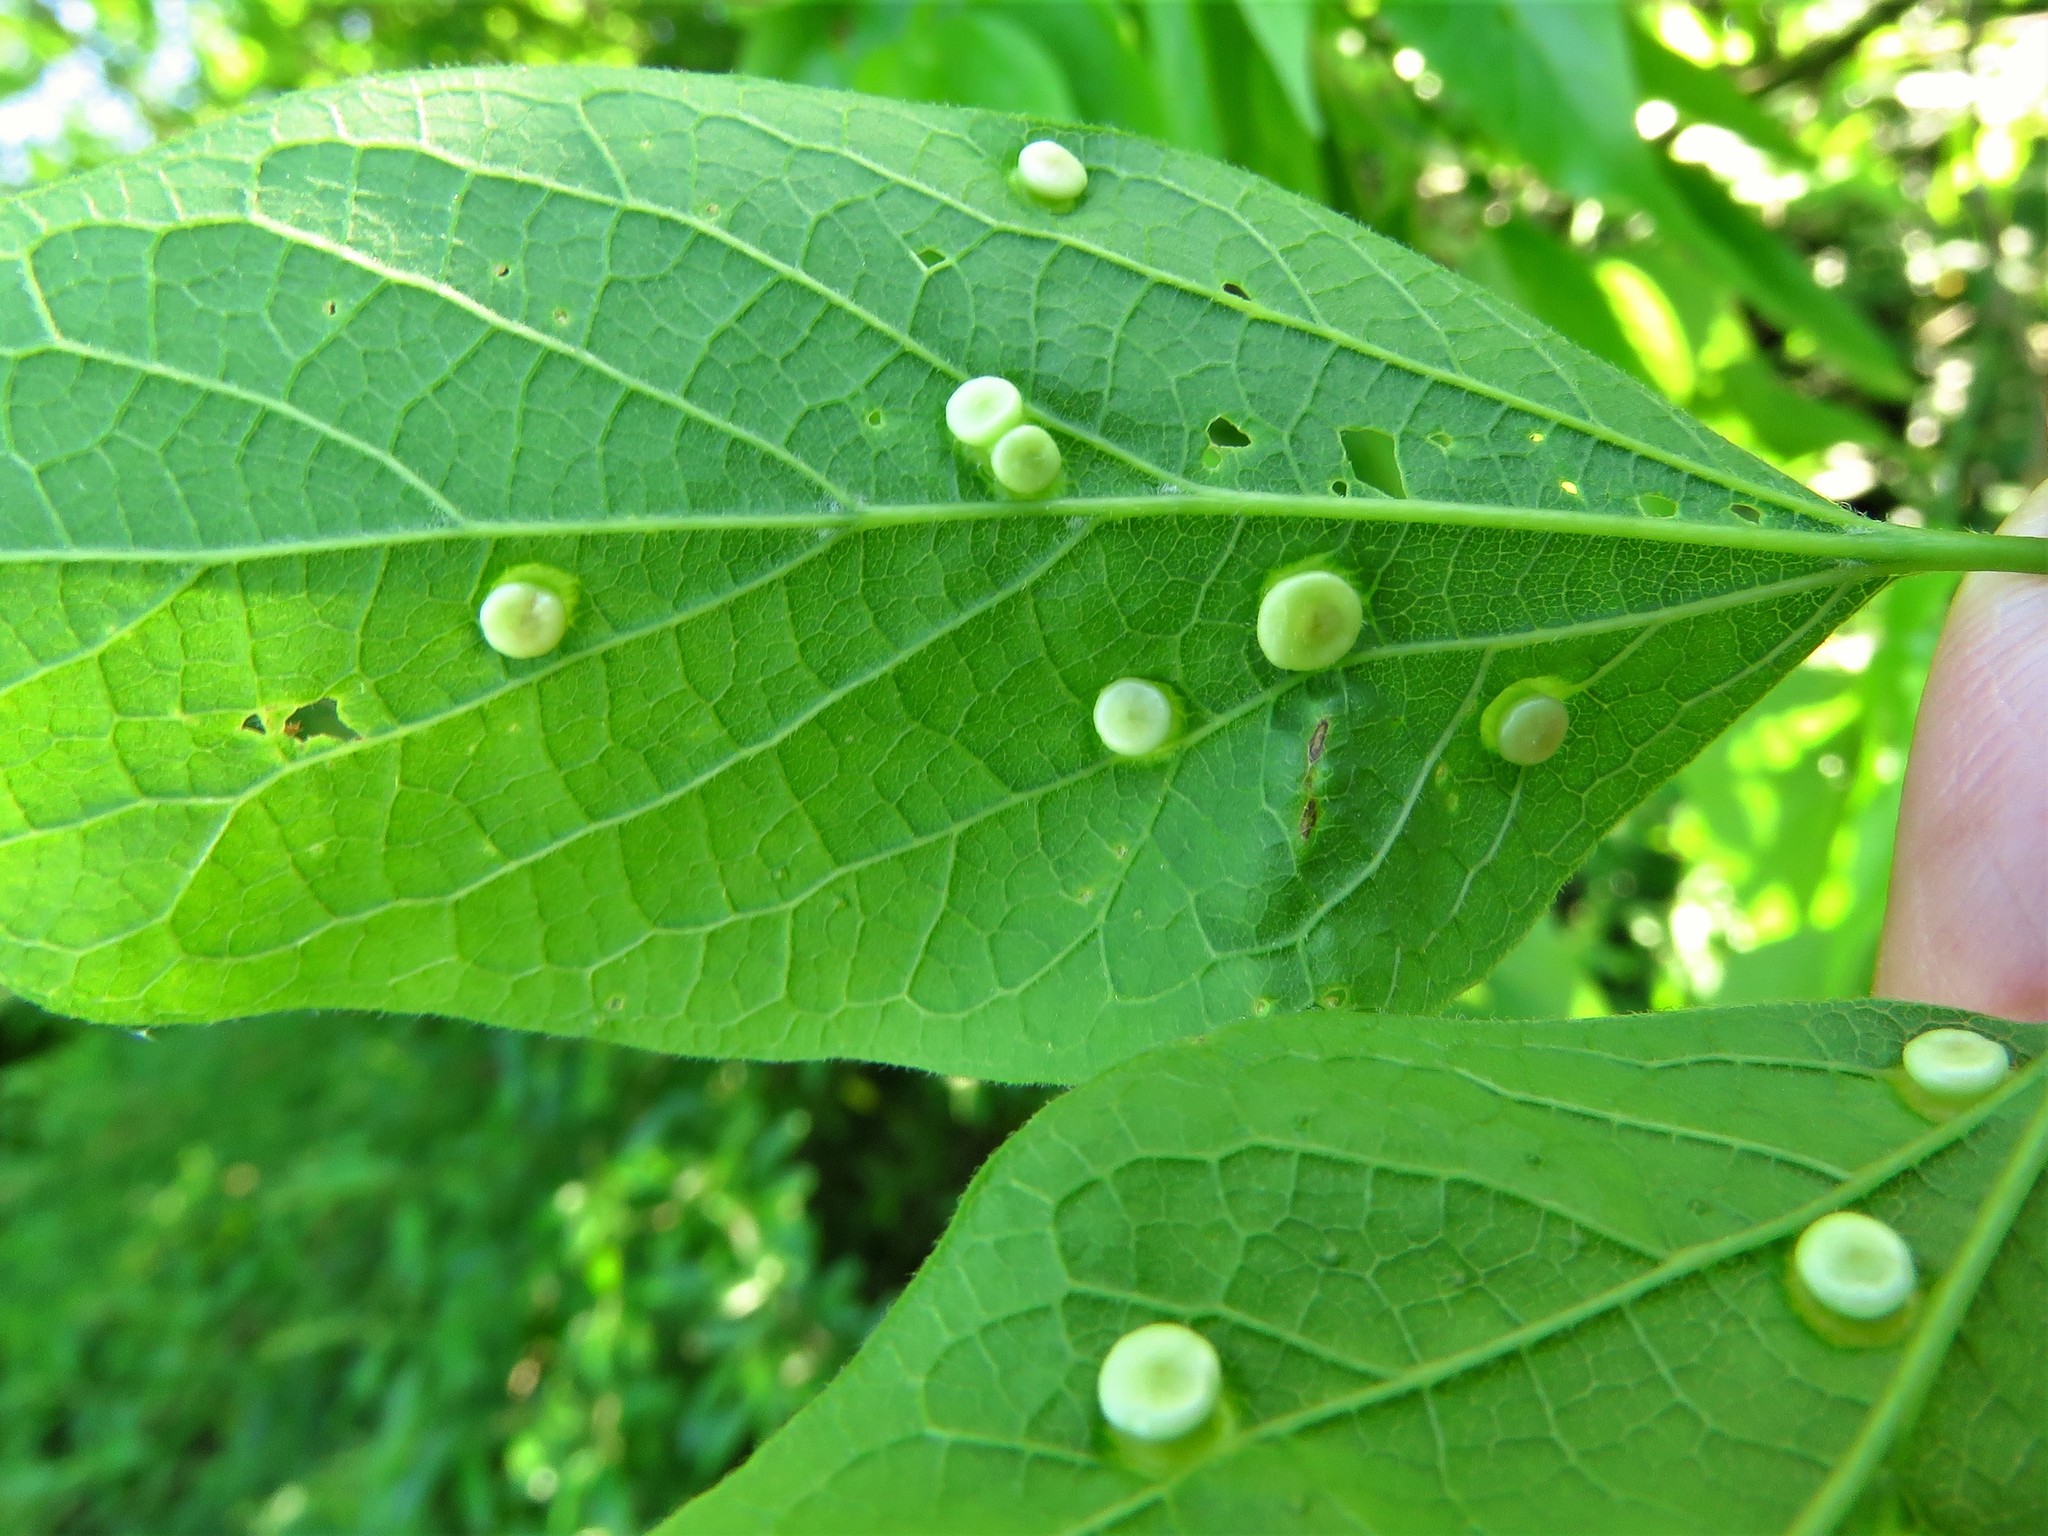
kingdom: Animalia
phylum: Arthropoda
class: Insecta
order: Hemiptera
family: Aphalaridae
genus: Pachypsylla
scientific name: Pachypsylla celtidismamma
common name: Hackberry nipplegall psyllid
